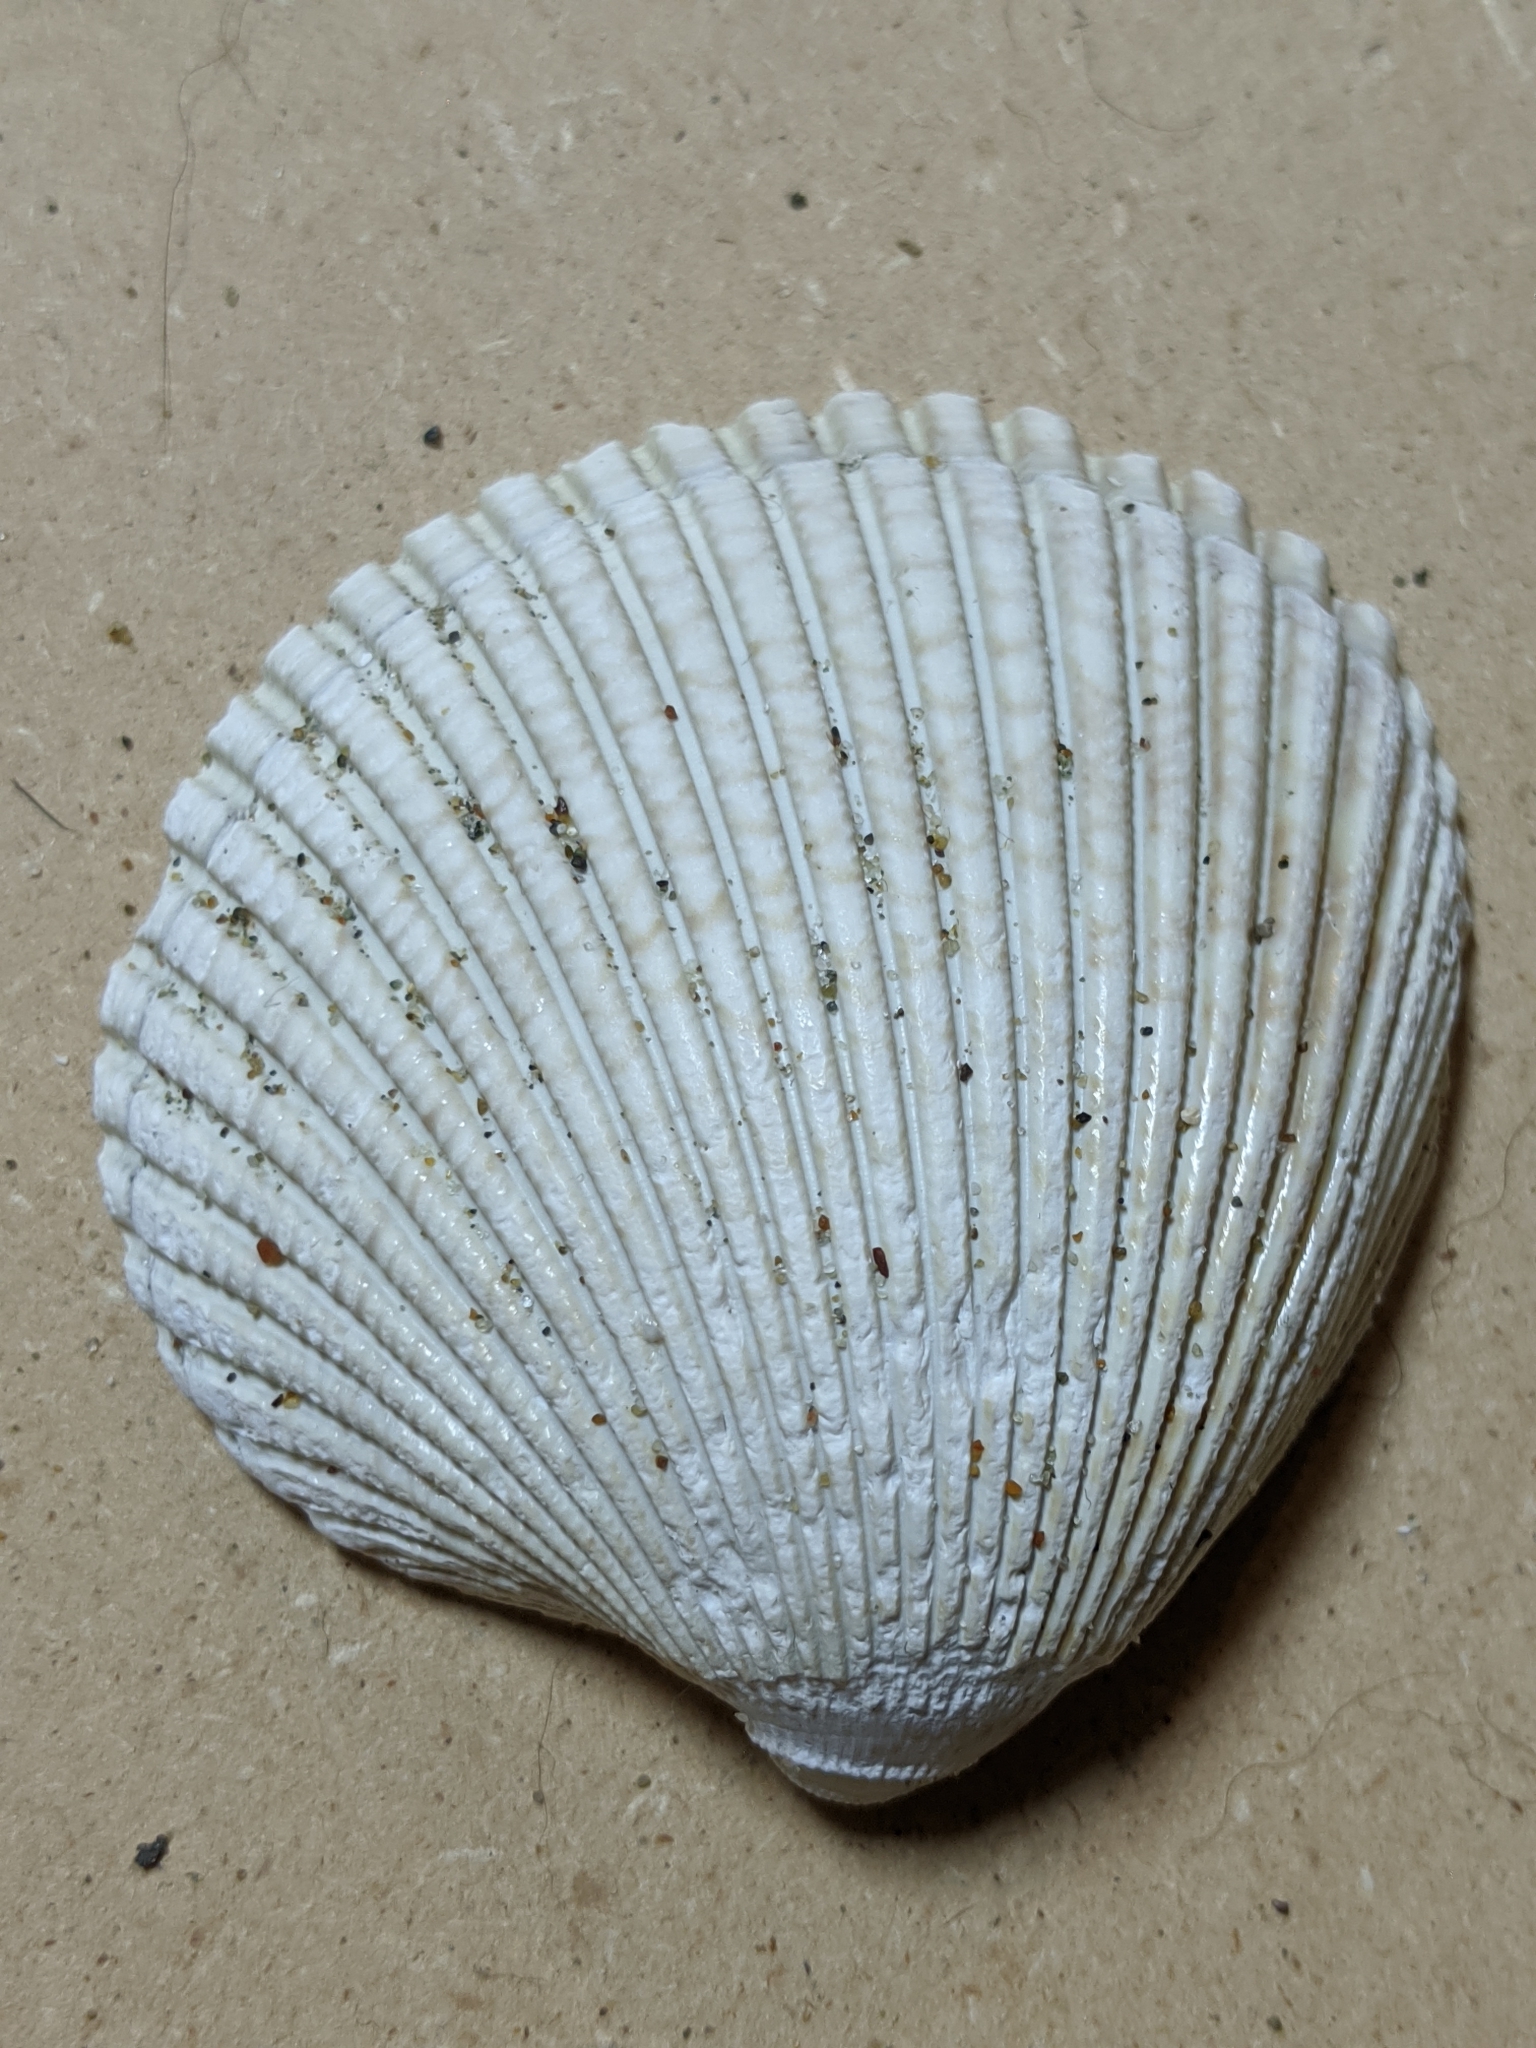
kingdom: Animalia
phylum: Mollusca
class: Bivalvia
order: Cardiida
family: Cardiidae
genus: Clinocardium
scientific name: Clinocardium nuttallii
